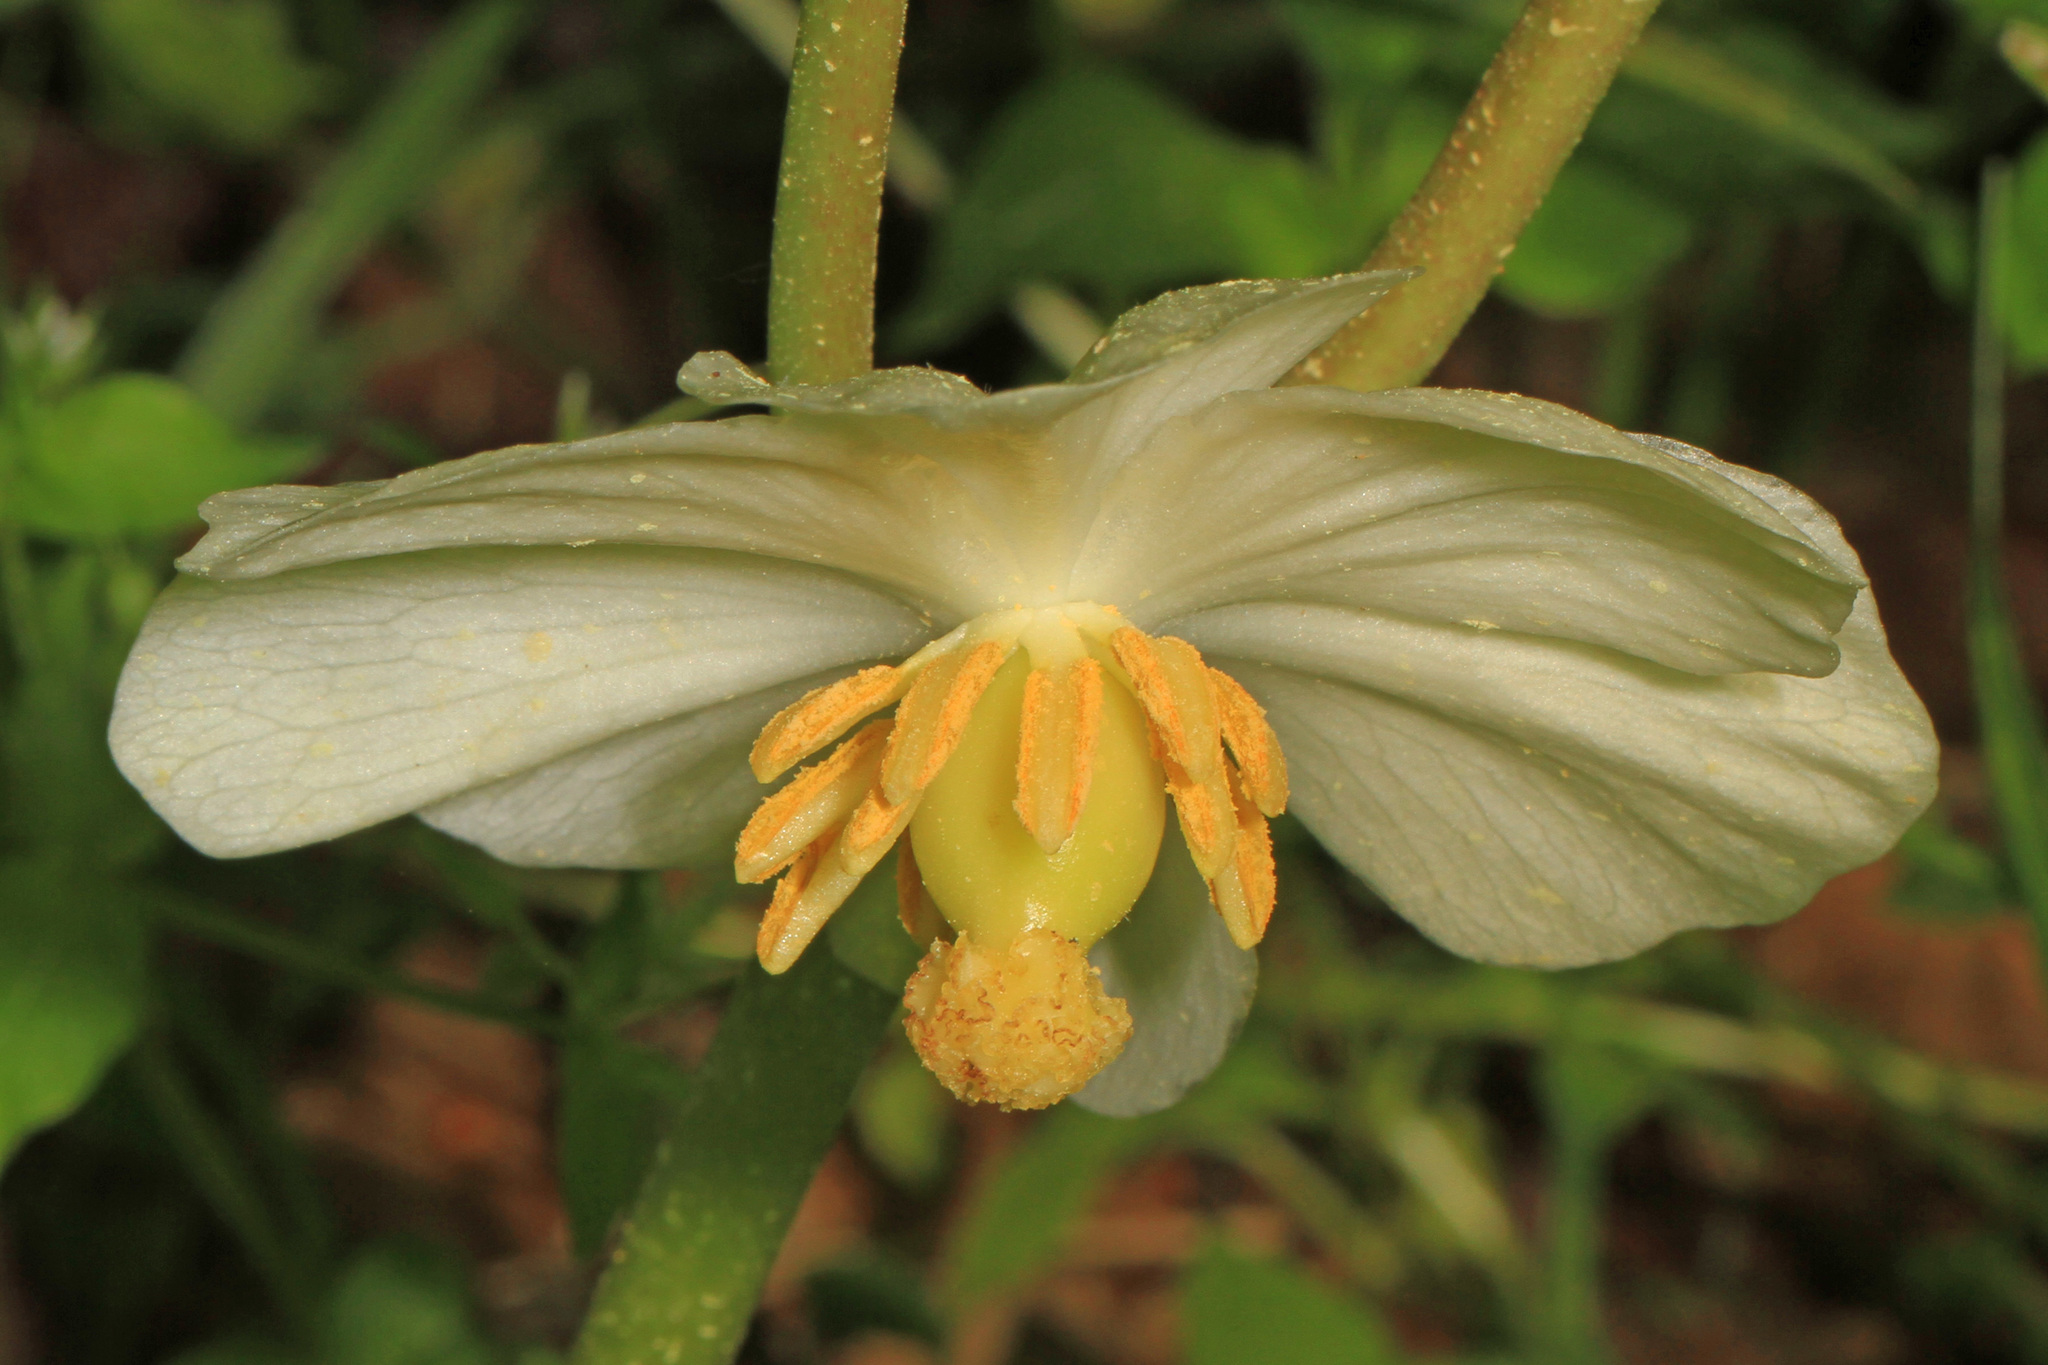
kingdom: Plantae
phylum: Tracheophyta
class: Magnoliopsida
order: Ranunculales
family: Berberidaceae
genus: Podophyllum
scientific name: Podophyllum peltatum
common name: Wild mandrake
